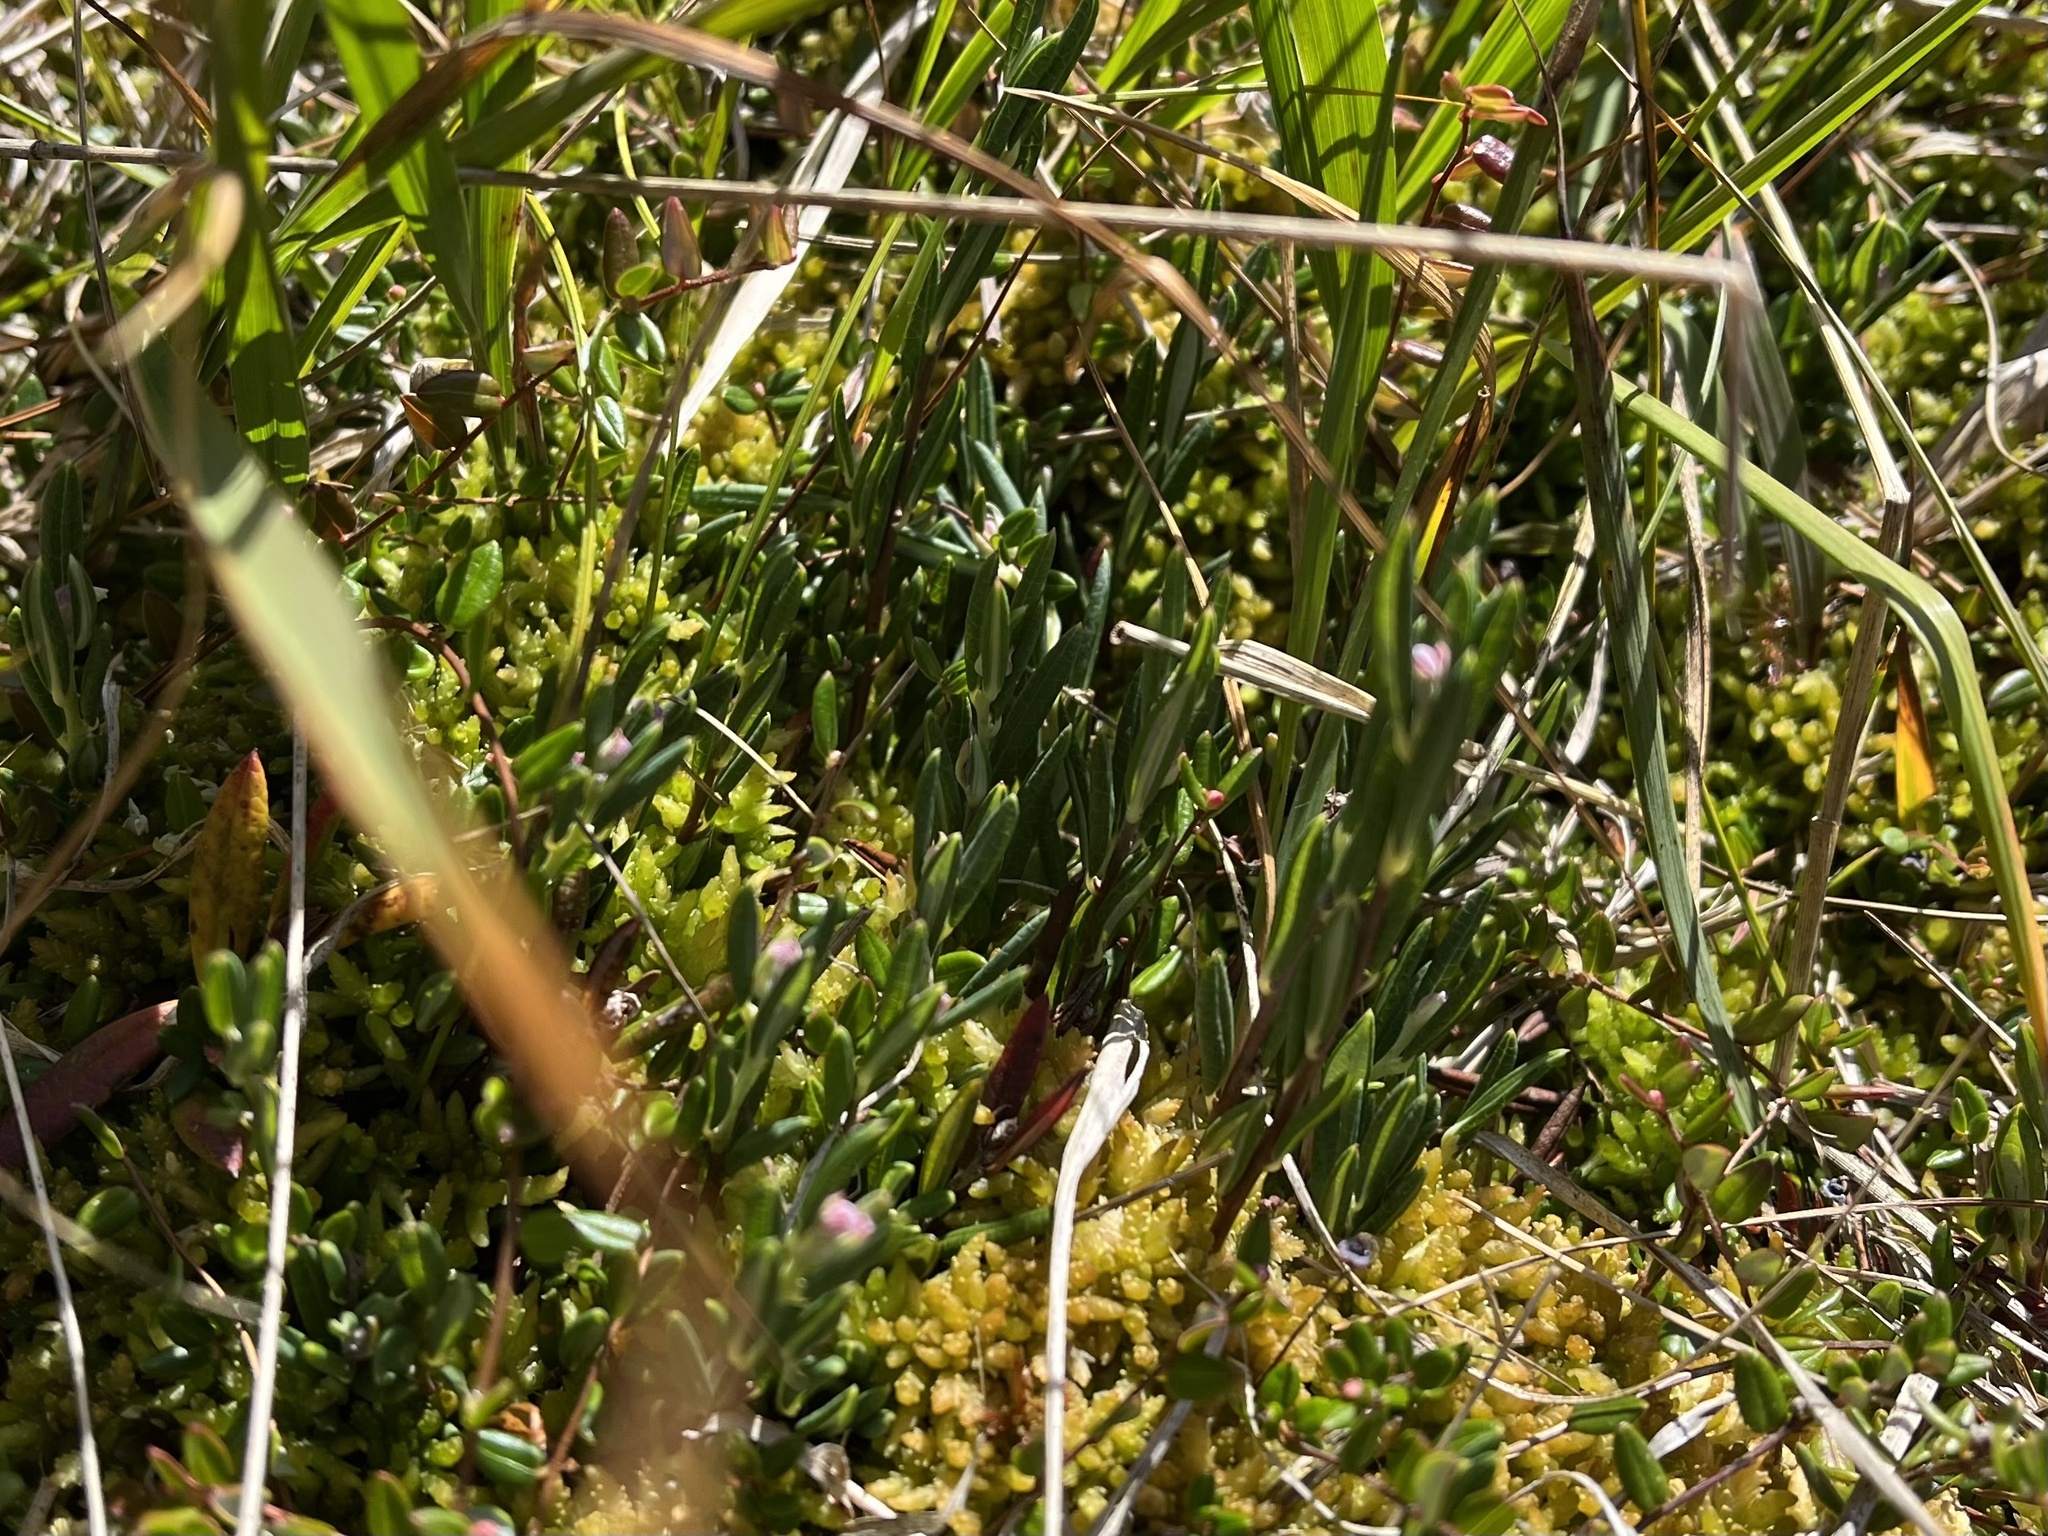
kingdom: Plantae
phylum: Tracheophyta
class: Magnoliopsida
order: Ericales
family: Ericaceae
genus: Andromeda
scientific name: Andromeda polifolia
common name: Bog-rosemary
